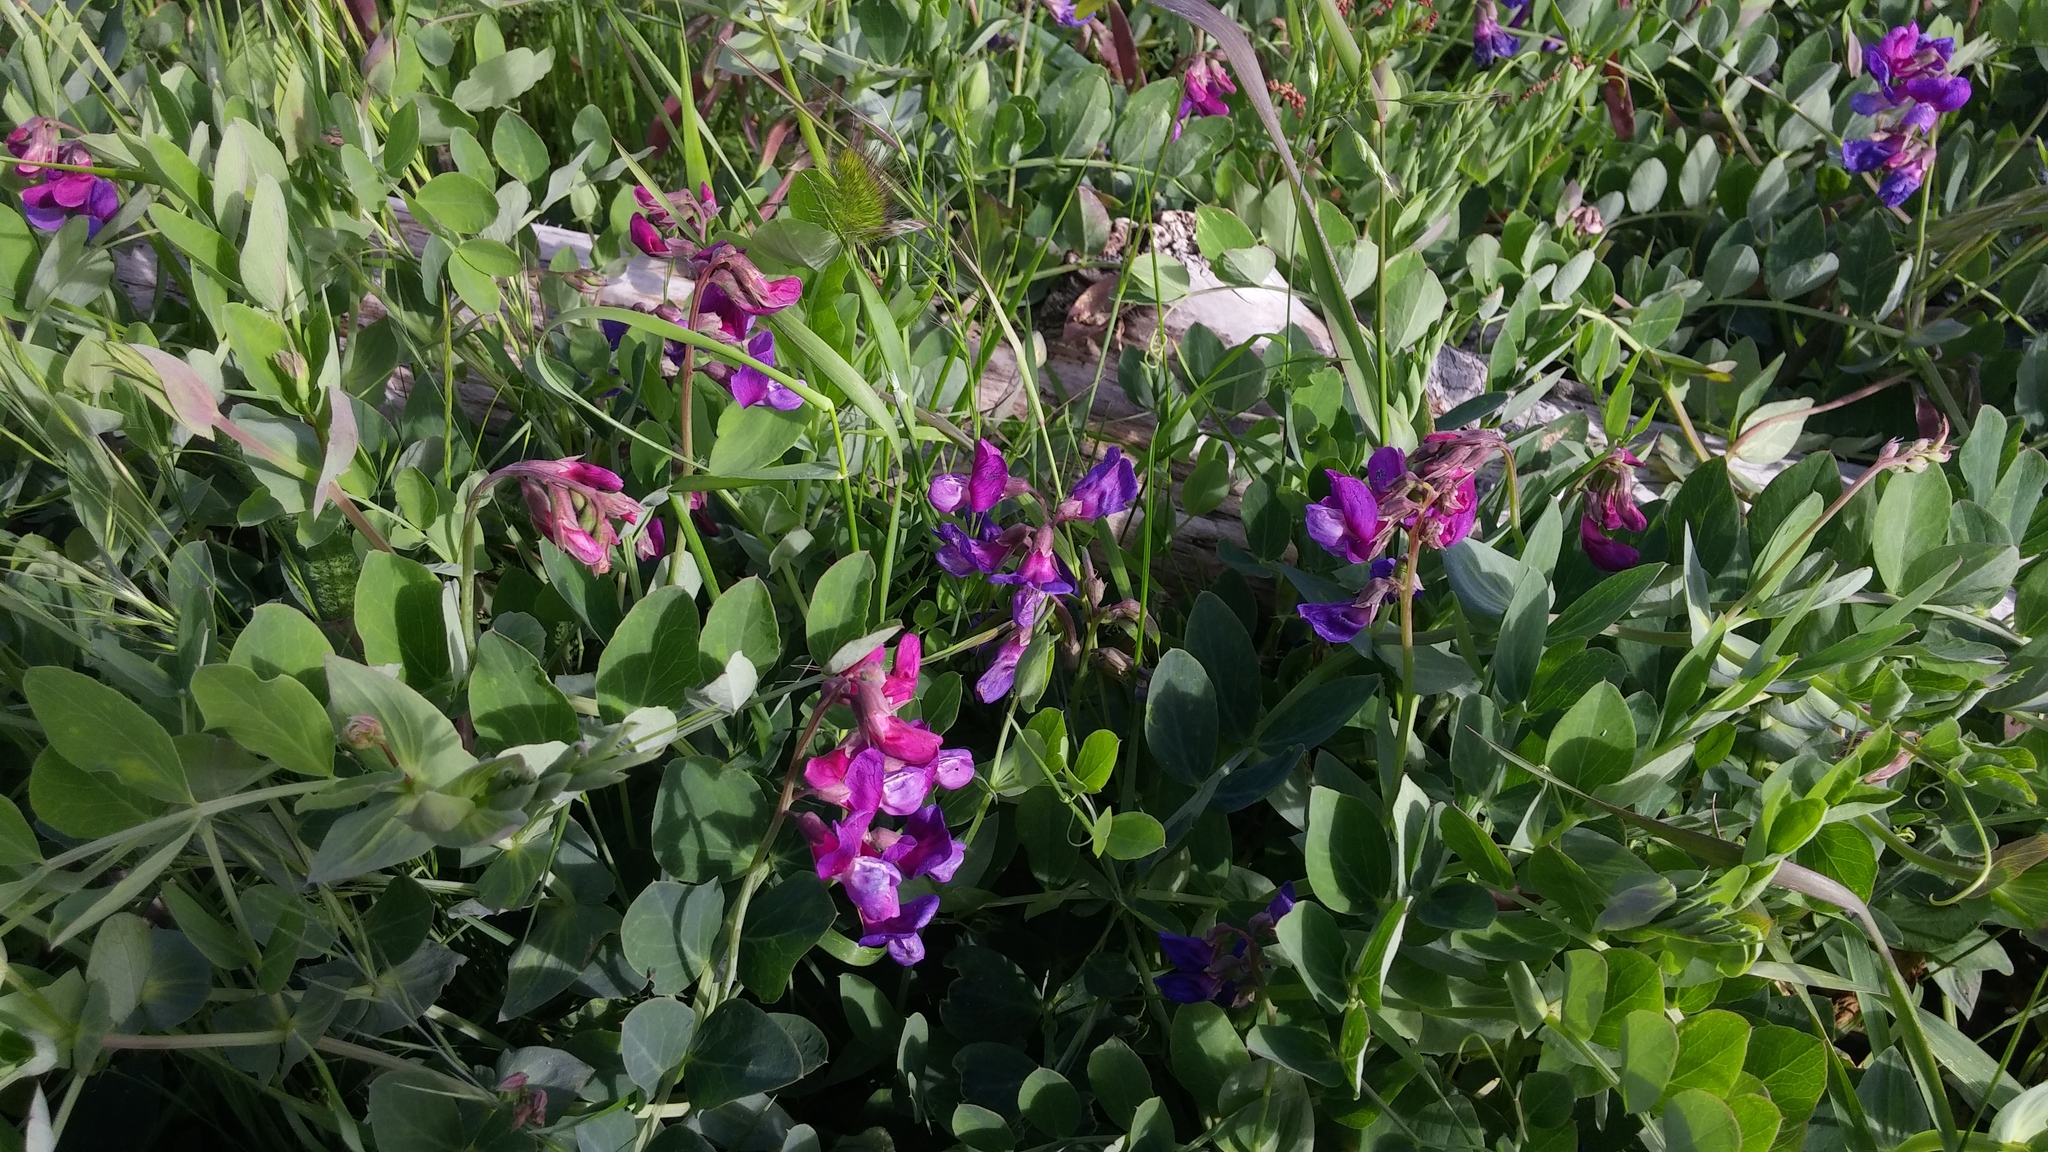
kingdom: Plantae
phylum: Tracheophyta
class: Magnoliopsida
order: Fabales
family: Fabaceae
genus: Lathyrus
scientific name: Lathyrus japonicus
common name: Sea pea
